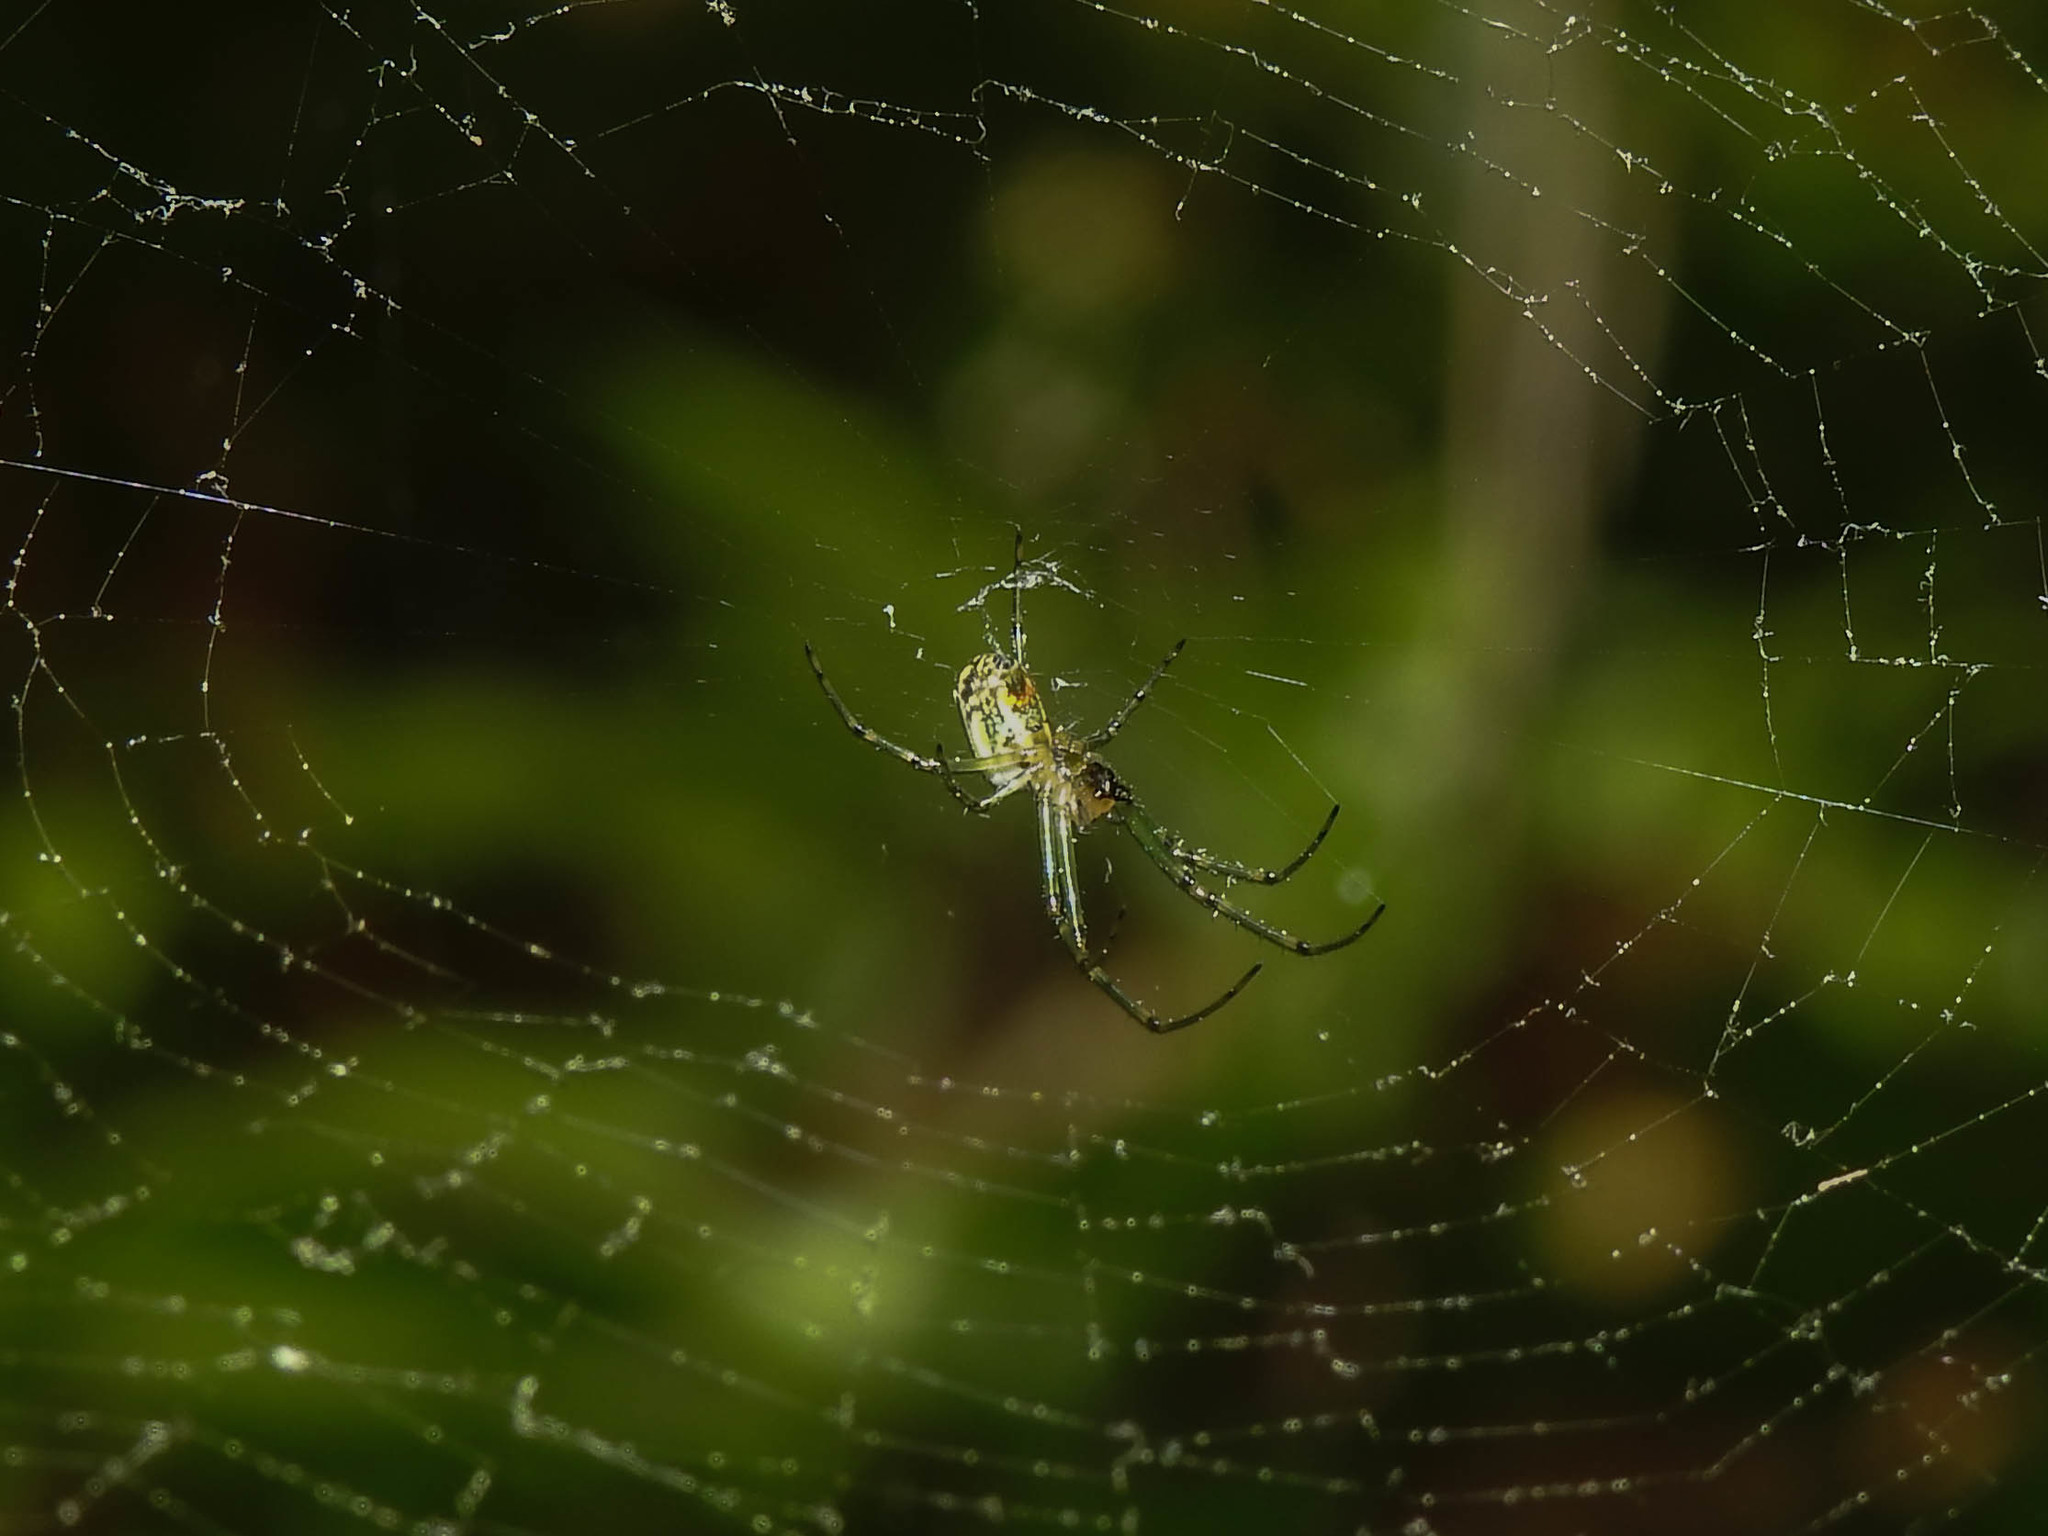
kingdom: Animalia
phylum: Arthropoda
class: Arachnida
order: Araneae
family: Tetragnathidae
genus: Leucauge
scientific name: Leucauge venusta
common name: Longjawed orb weavers
